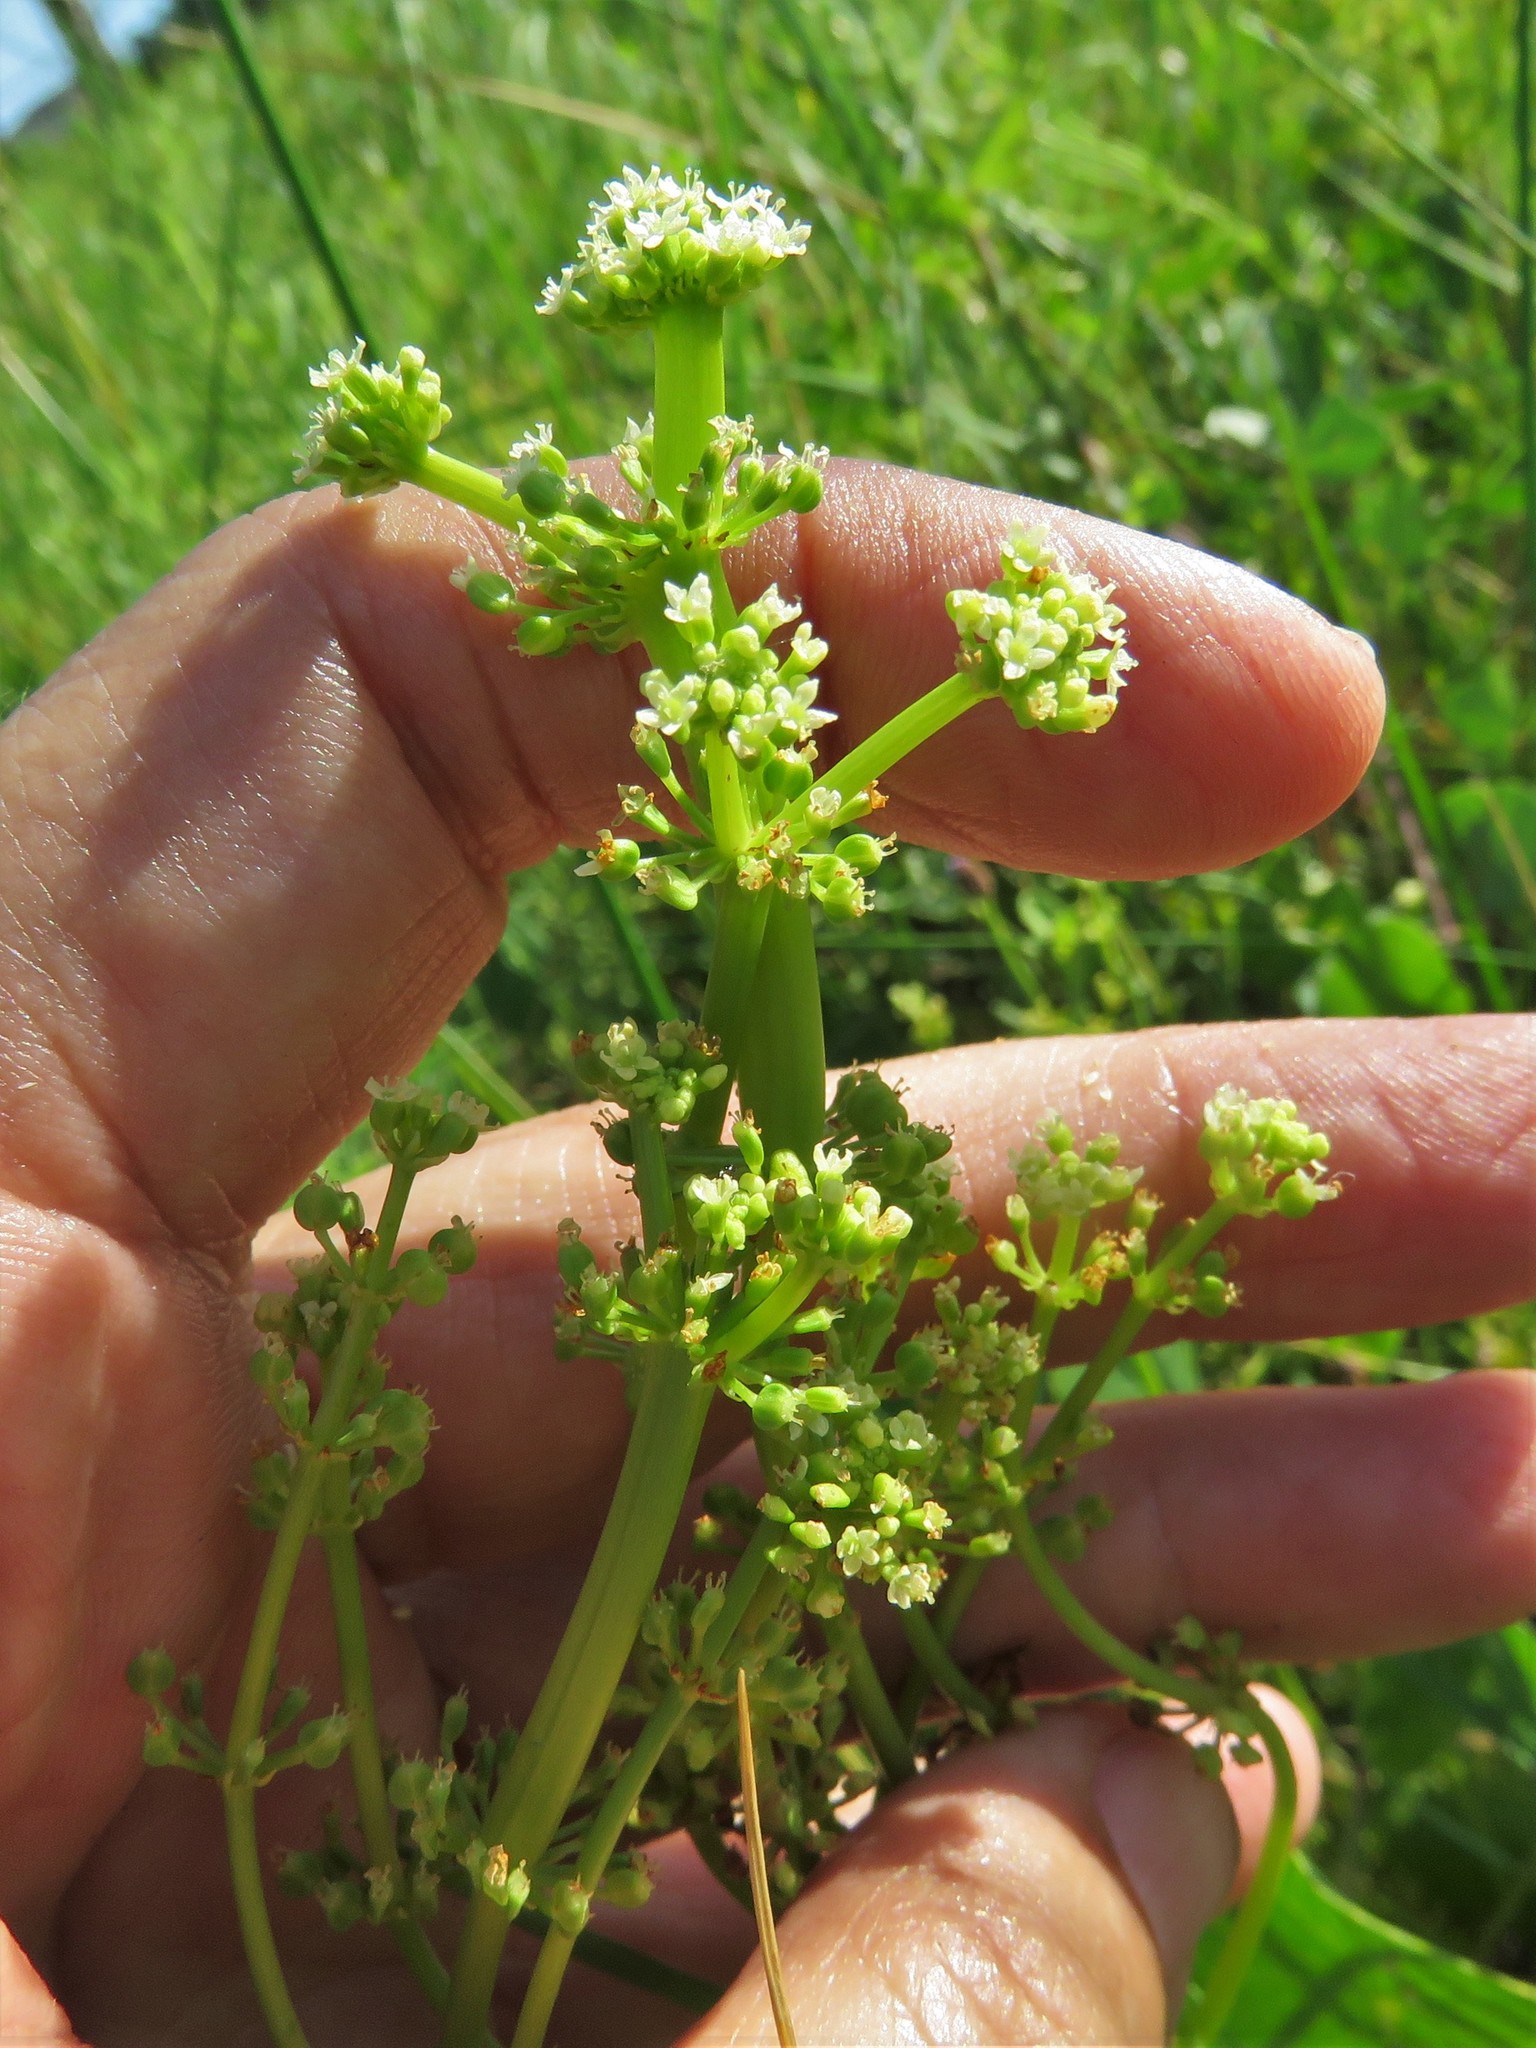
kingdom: Plantae
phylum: Tracheophyta
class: Magnoliopsida
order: Apiales
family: Araliaceae
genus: Hydrocotyle
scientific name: Hydrocotyle bonariensis
